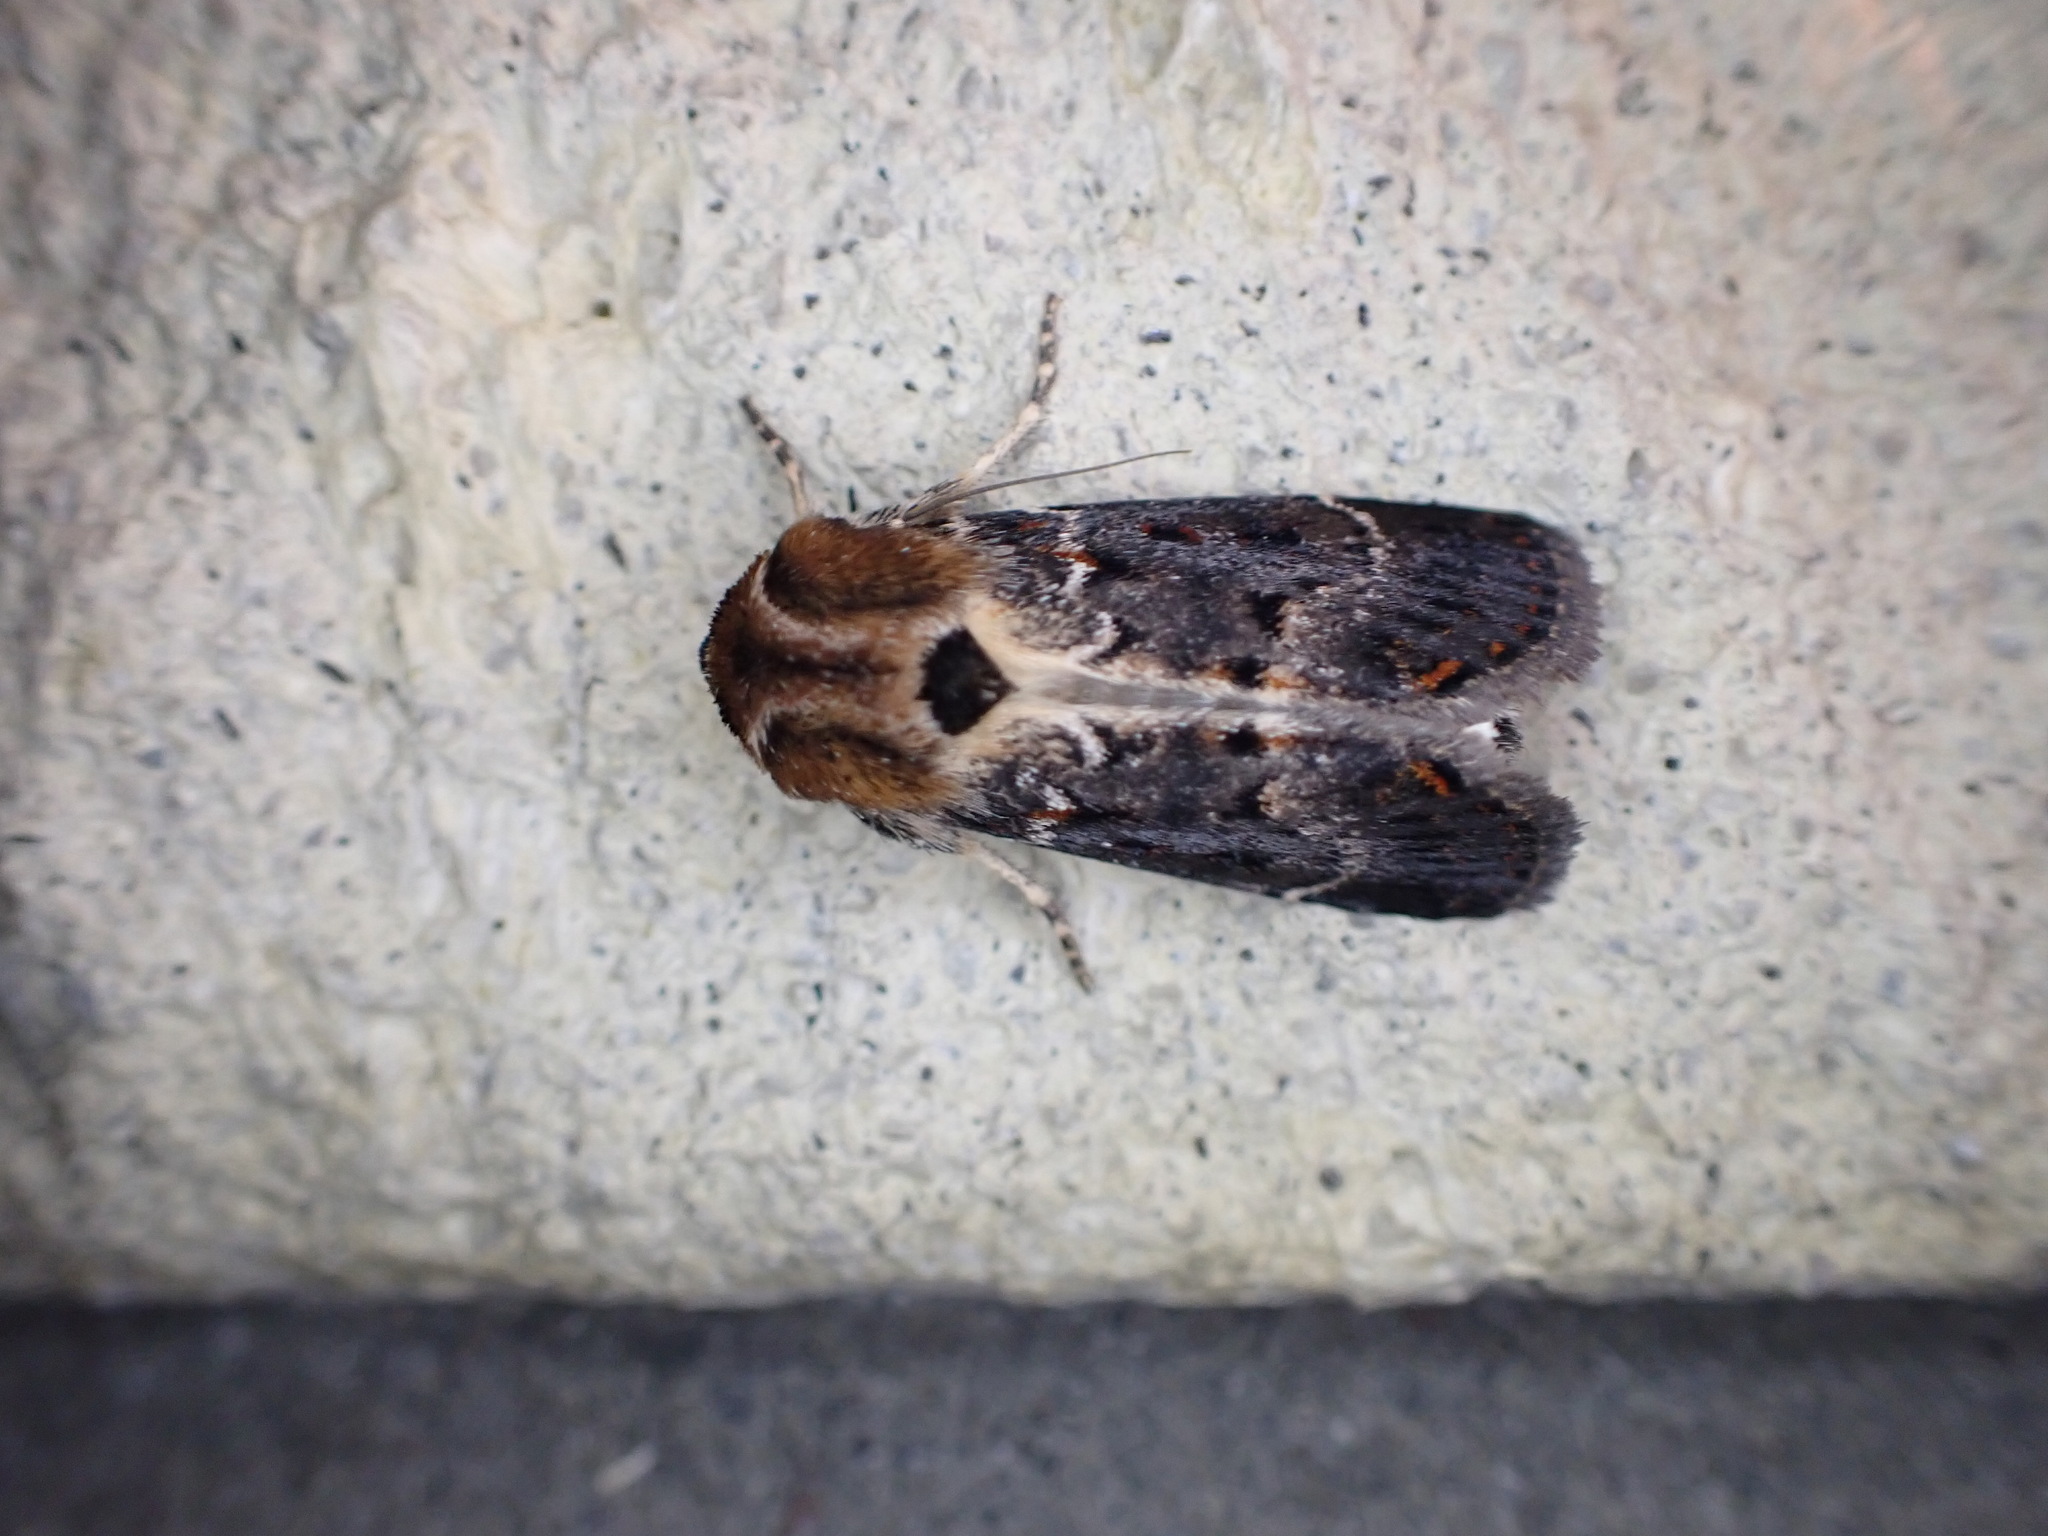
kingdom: Animalia
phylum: Arthropoda
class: Insecta
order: Lepidoptera
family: Noctuidae
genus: Proteuxoa
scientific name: Proteuxoa sanguinipuncta
